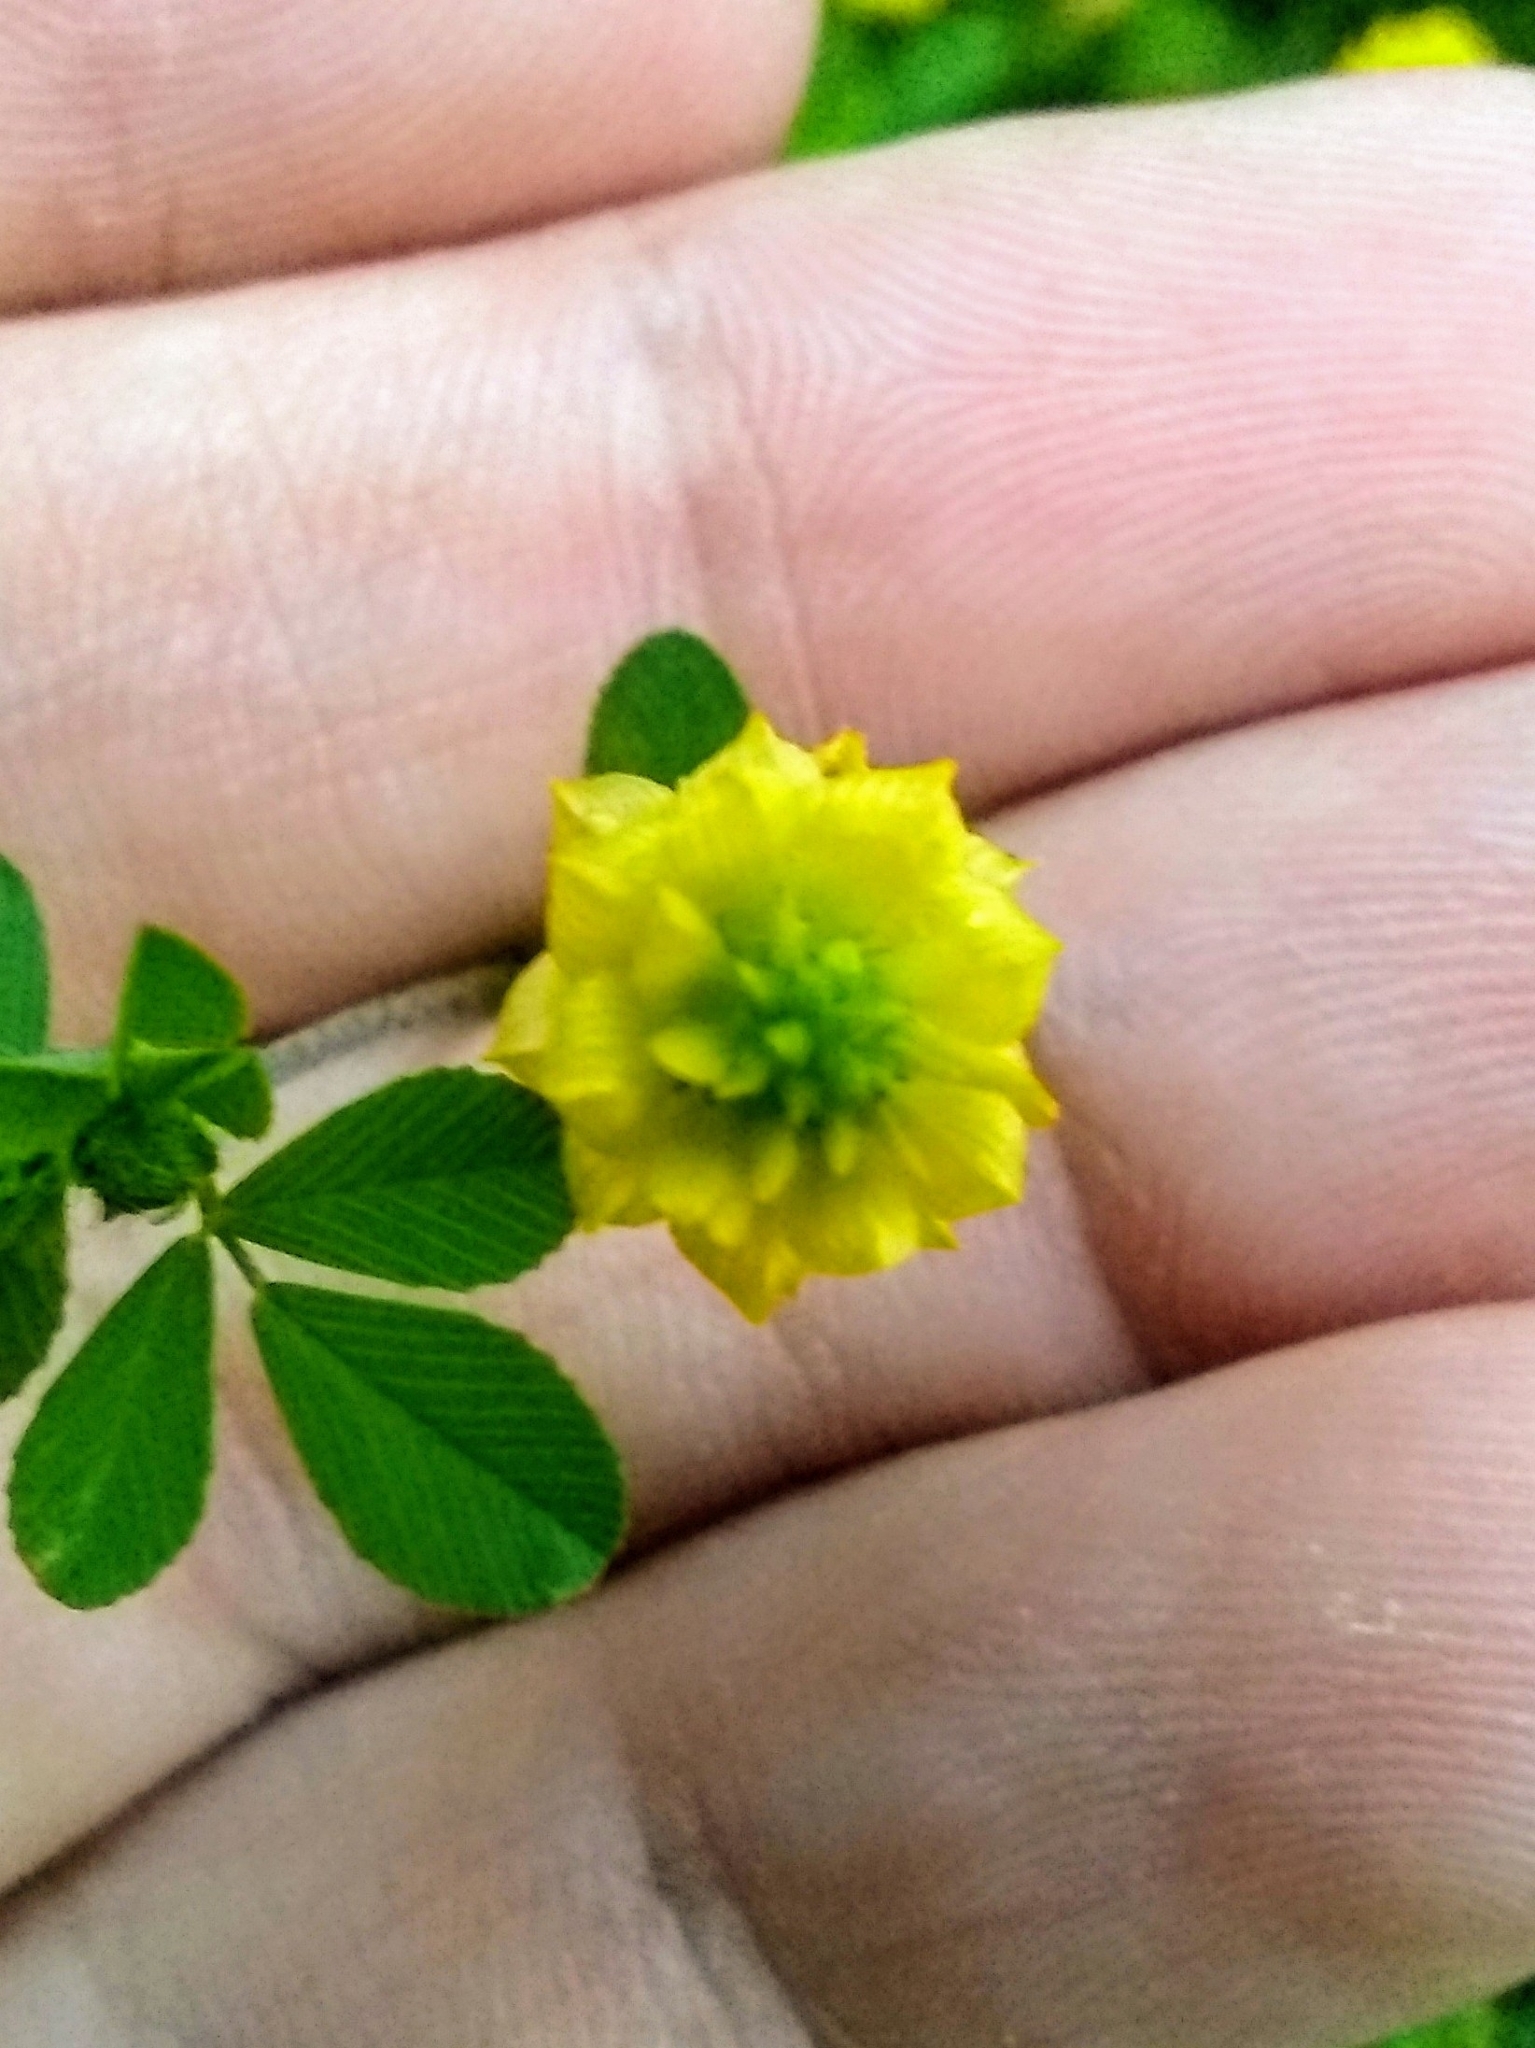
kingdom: Plantae
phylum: Tracheophyta
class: Magnoliopsida
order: Fabales
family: Fabaceae
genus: Trifolium
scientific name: Trifolium campestre
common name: Field clover
